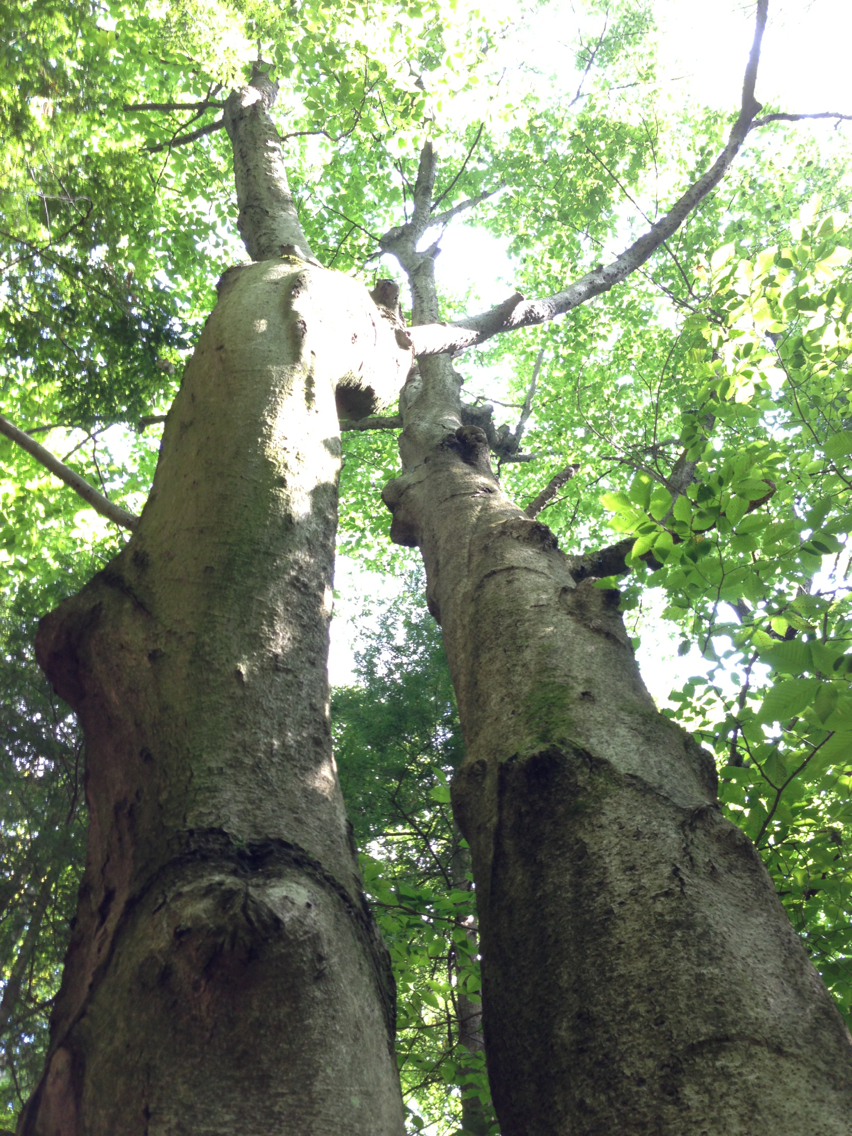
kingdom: Plantae
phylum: Tracheophyta
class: Magnoliopsida
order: Fagales
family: Fagaceae
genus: Fagus
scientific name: Fagus grandifolia
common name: American beech
